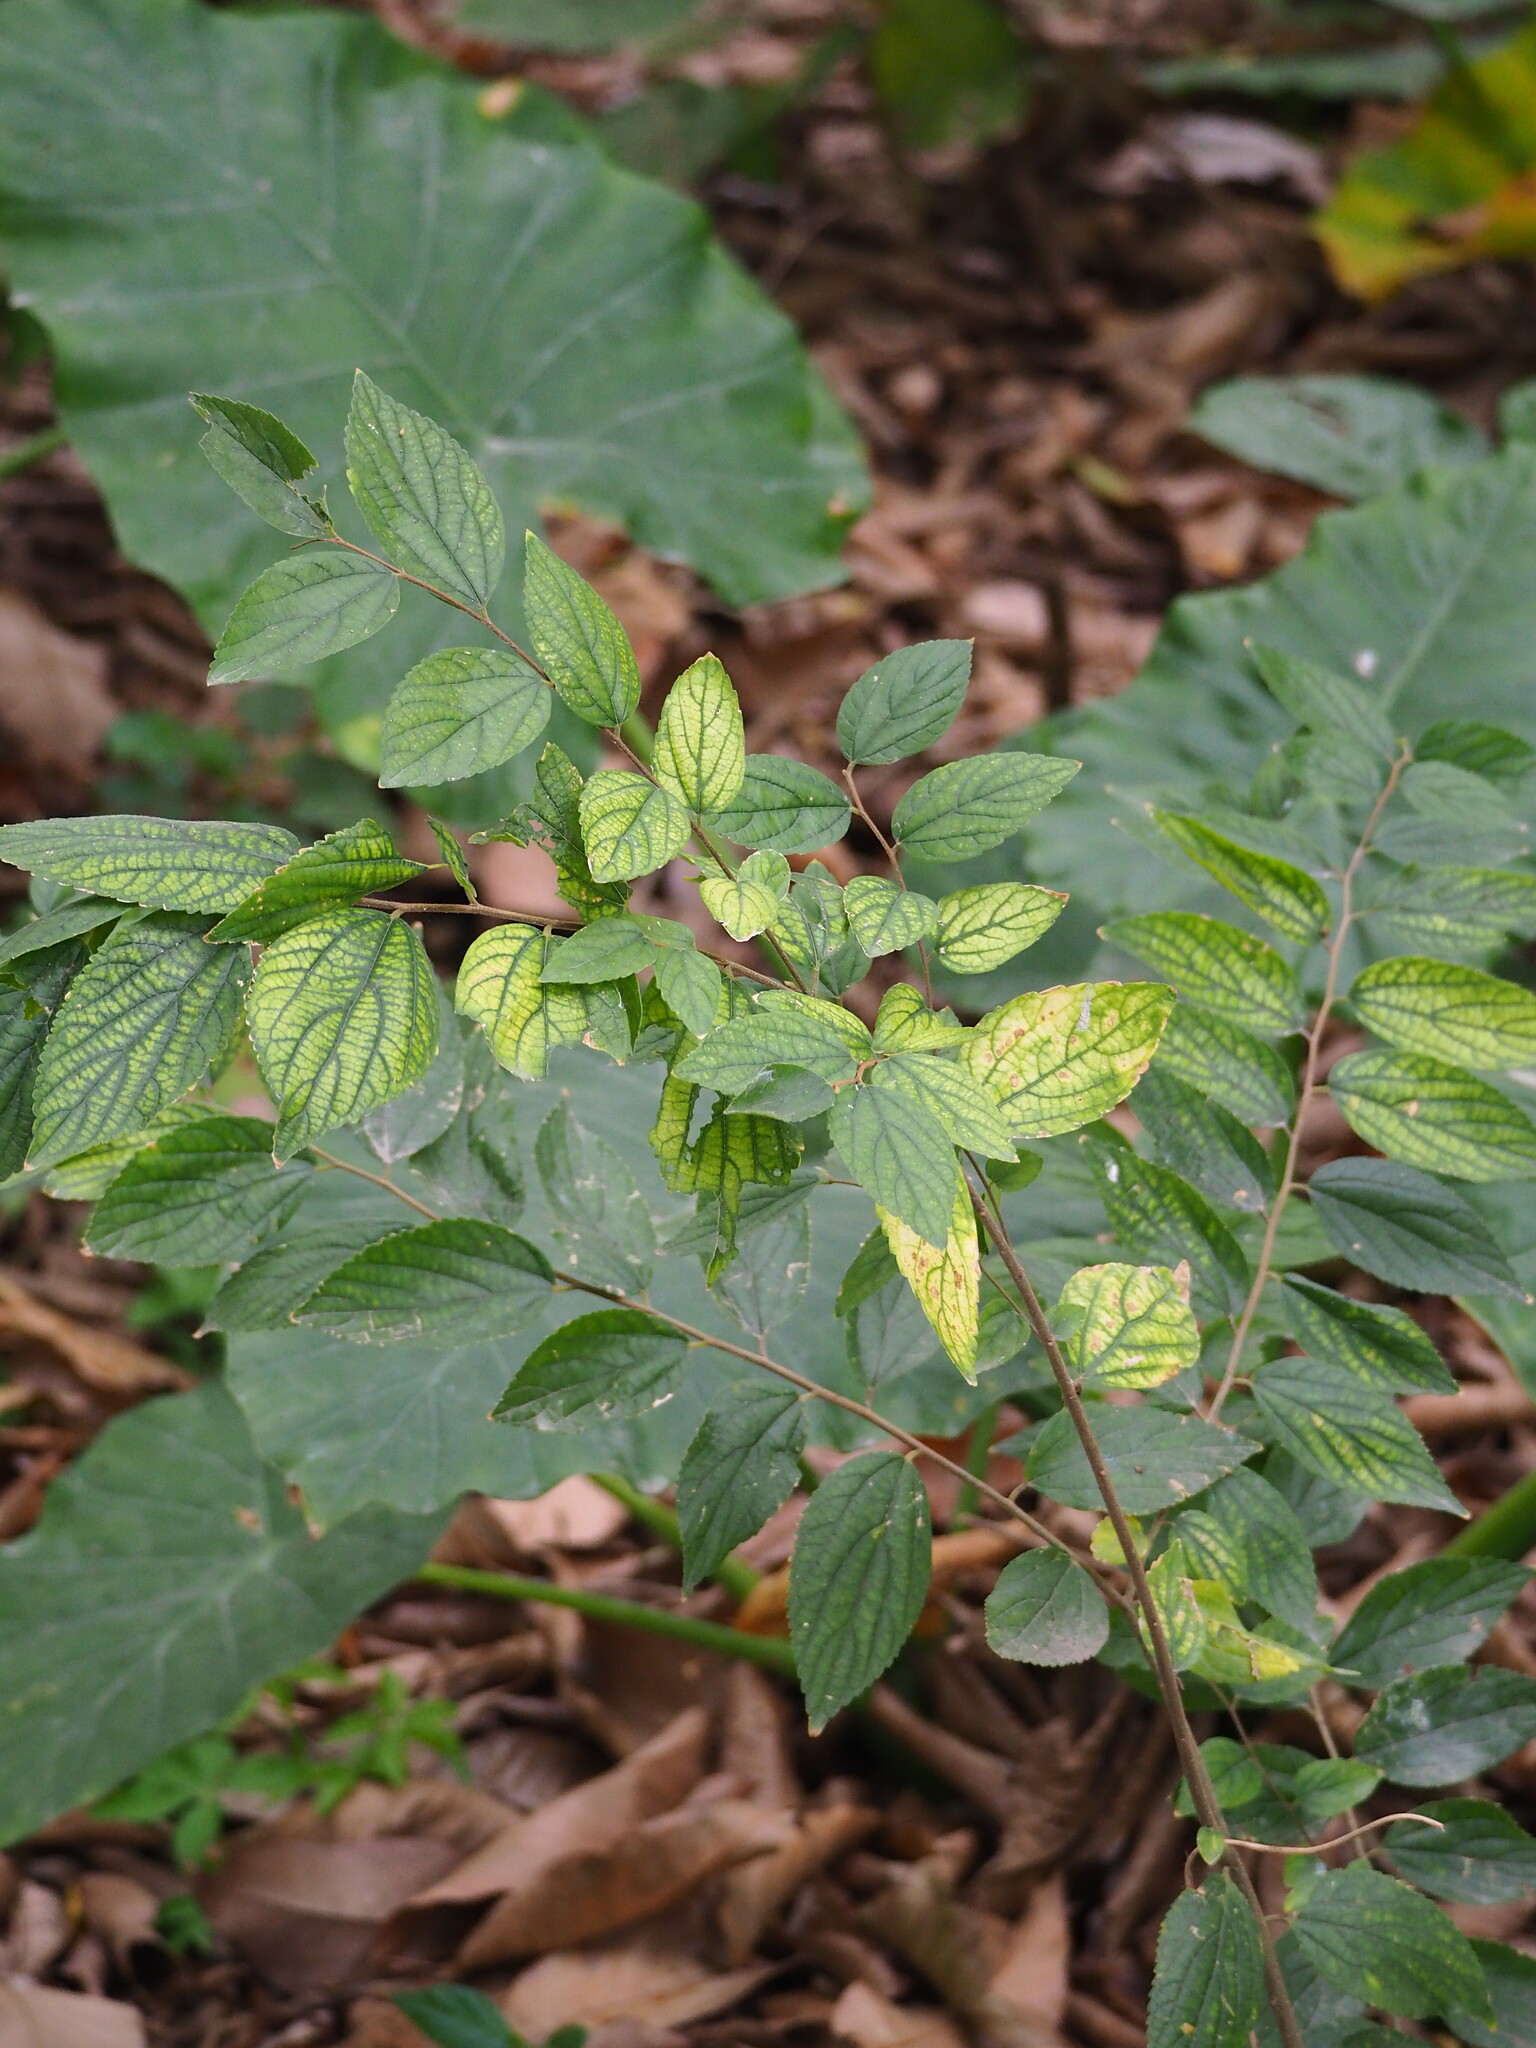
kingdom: Plantae
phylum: Tracheophyta
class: Magnoliopsida
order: Rosales
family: Cannabaceae
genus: Celtis
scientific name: Celtis sinensis
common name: Chinese hackberry
